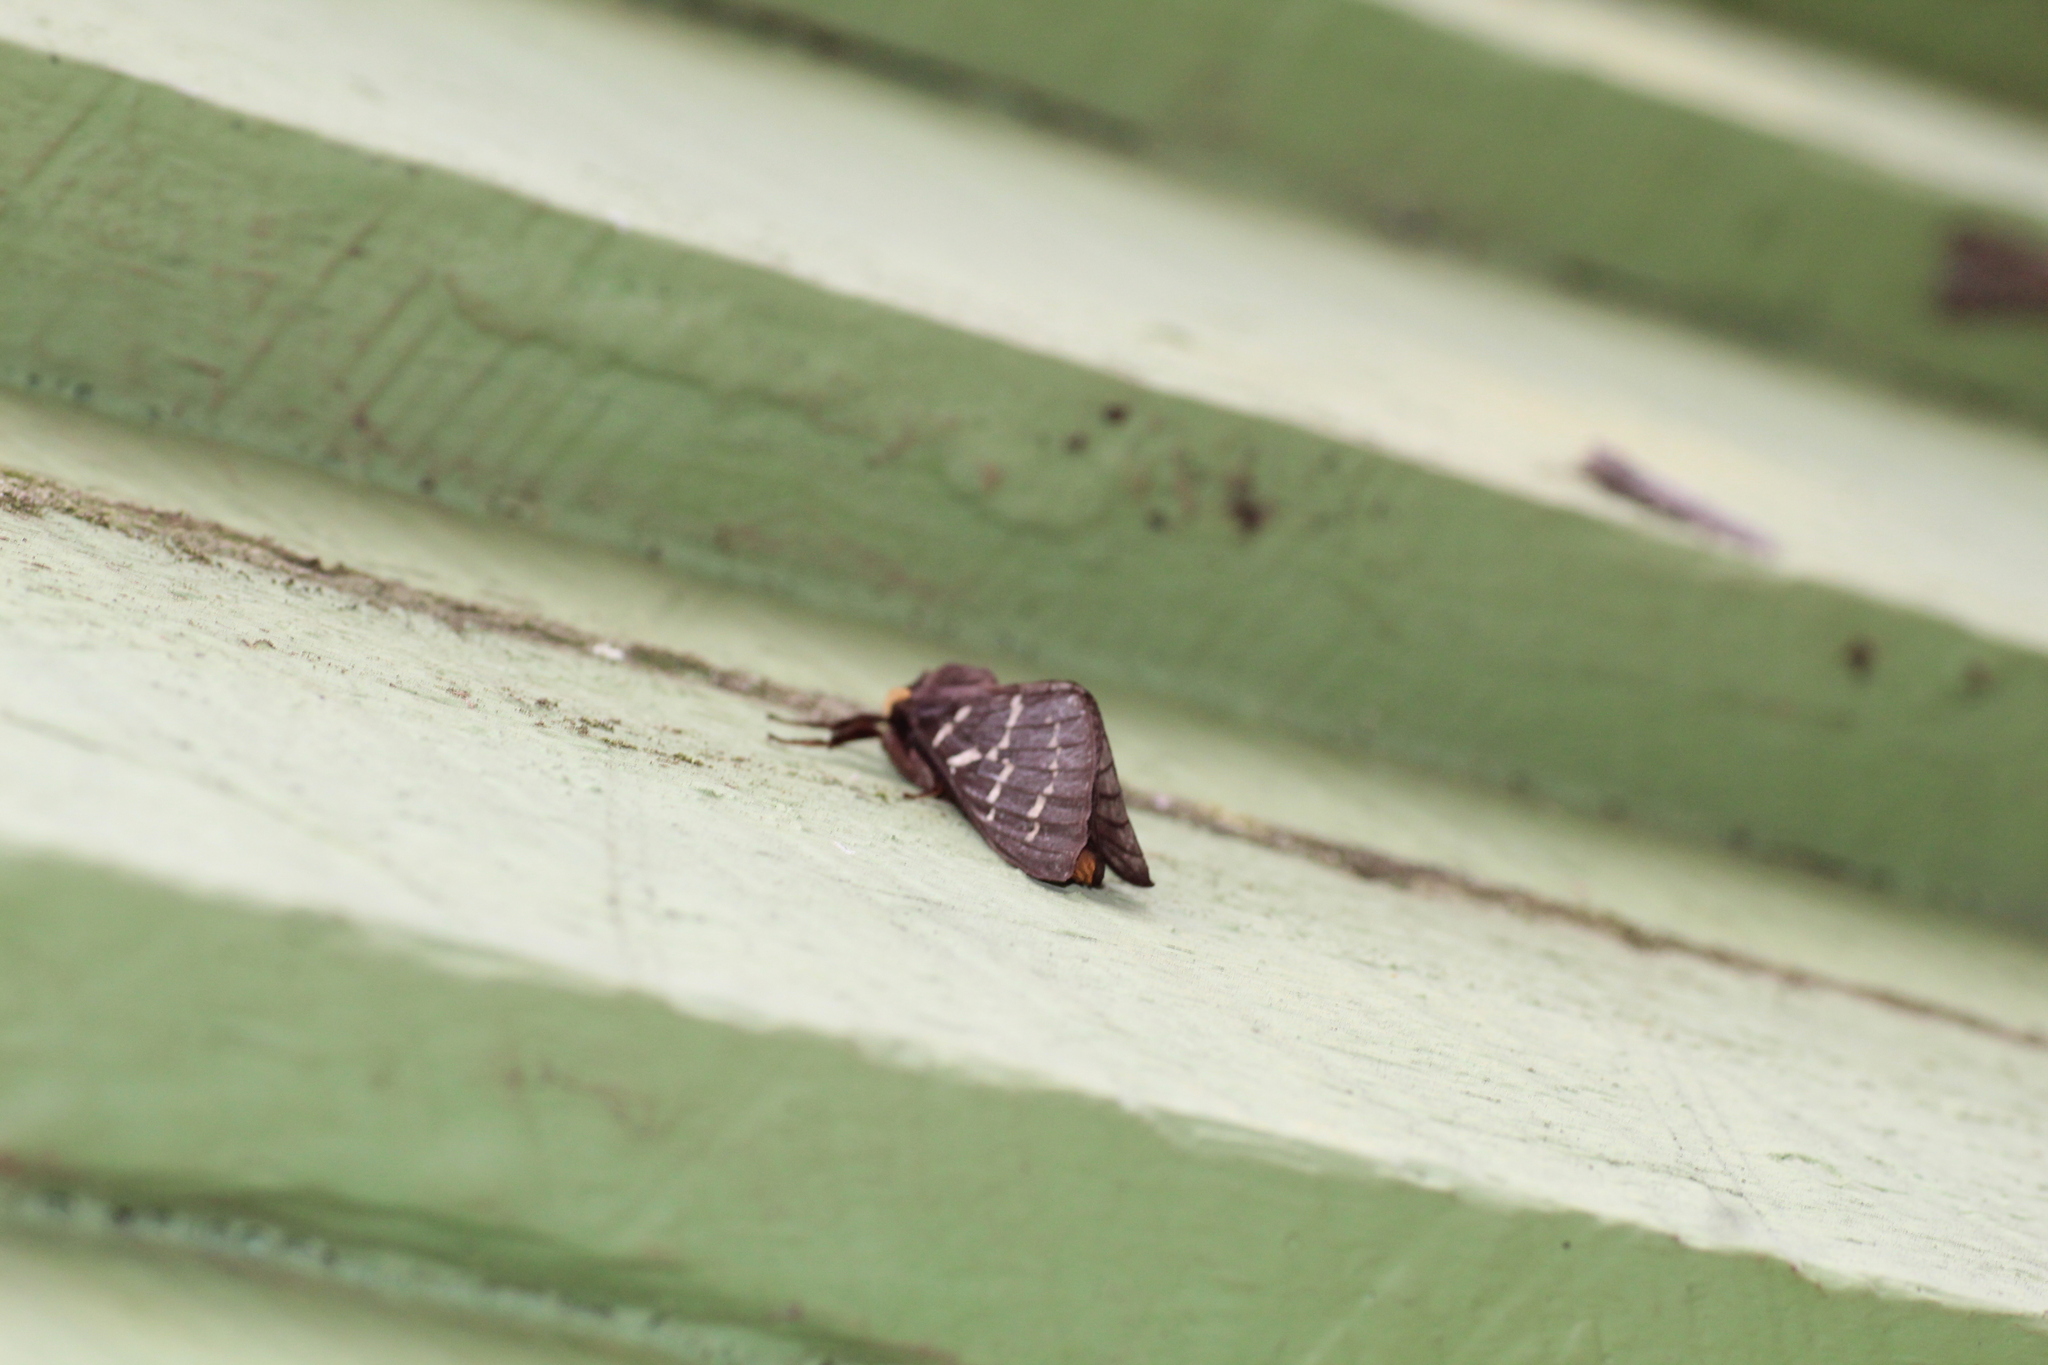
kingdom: Animalia
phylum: Arthropoda
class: Insecta
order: Lepidoptera
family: Hepialidae
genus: Oxycanus
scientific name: Oxycanus perditus
